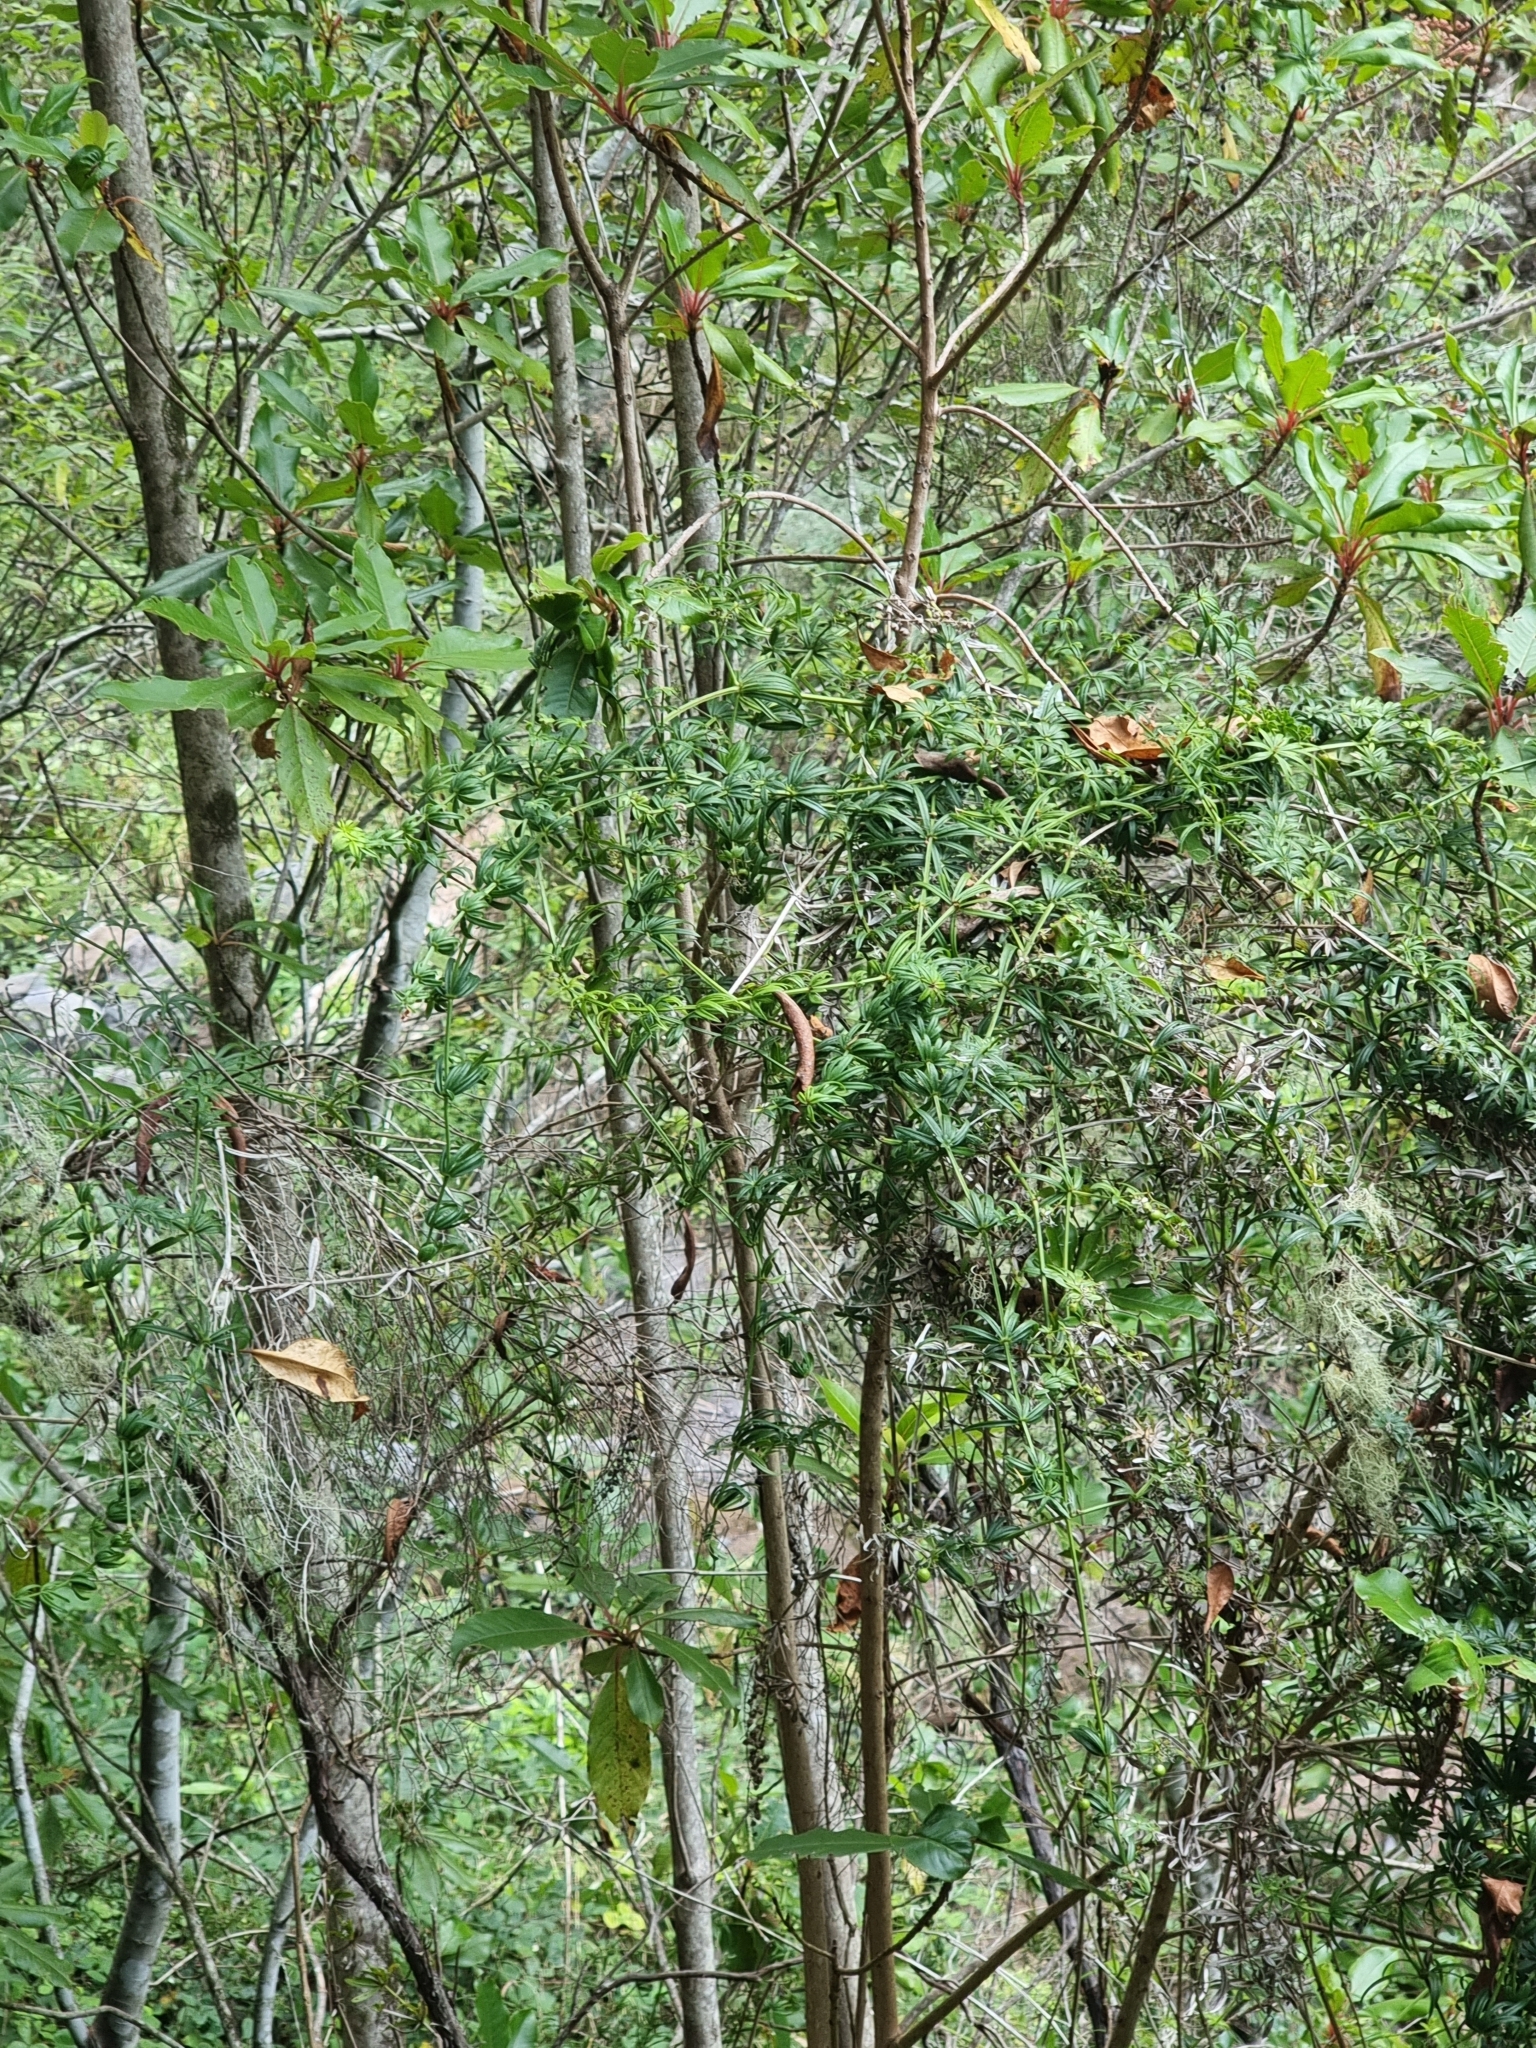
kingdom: Plantae
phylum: Tracheophyta
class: Magnoliopsida
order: Gentianales
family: Rubiaceae
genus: Rubia
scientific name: Rubia occidens
